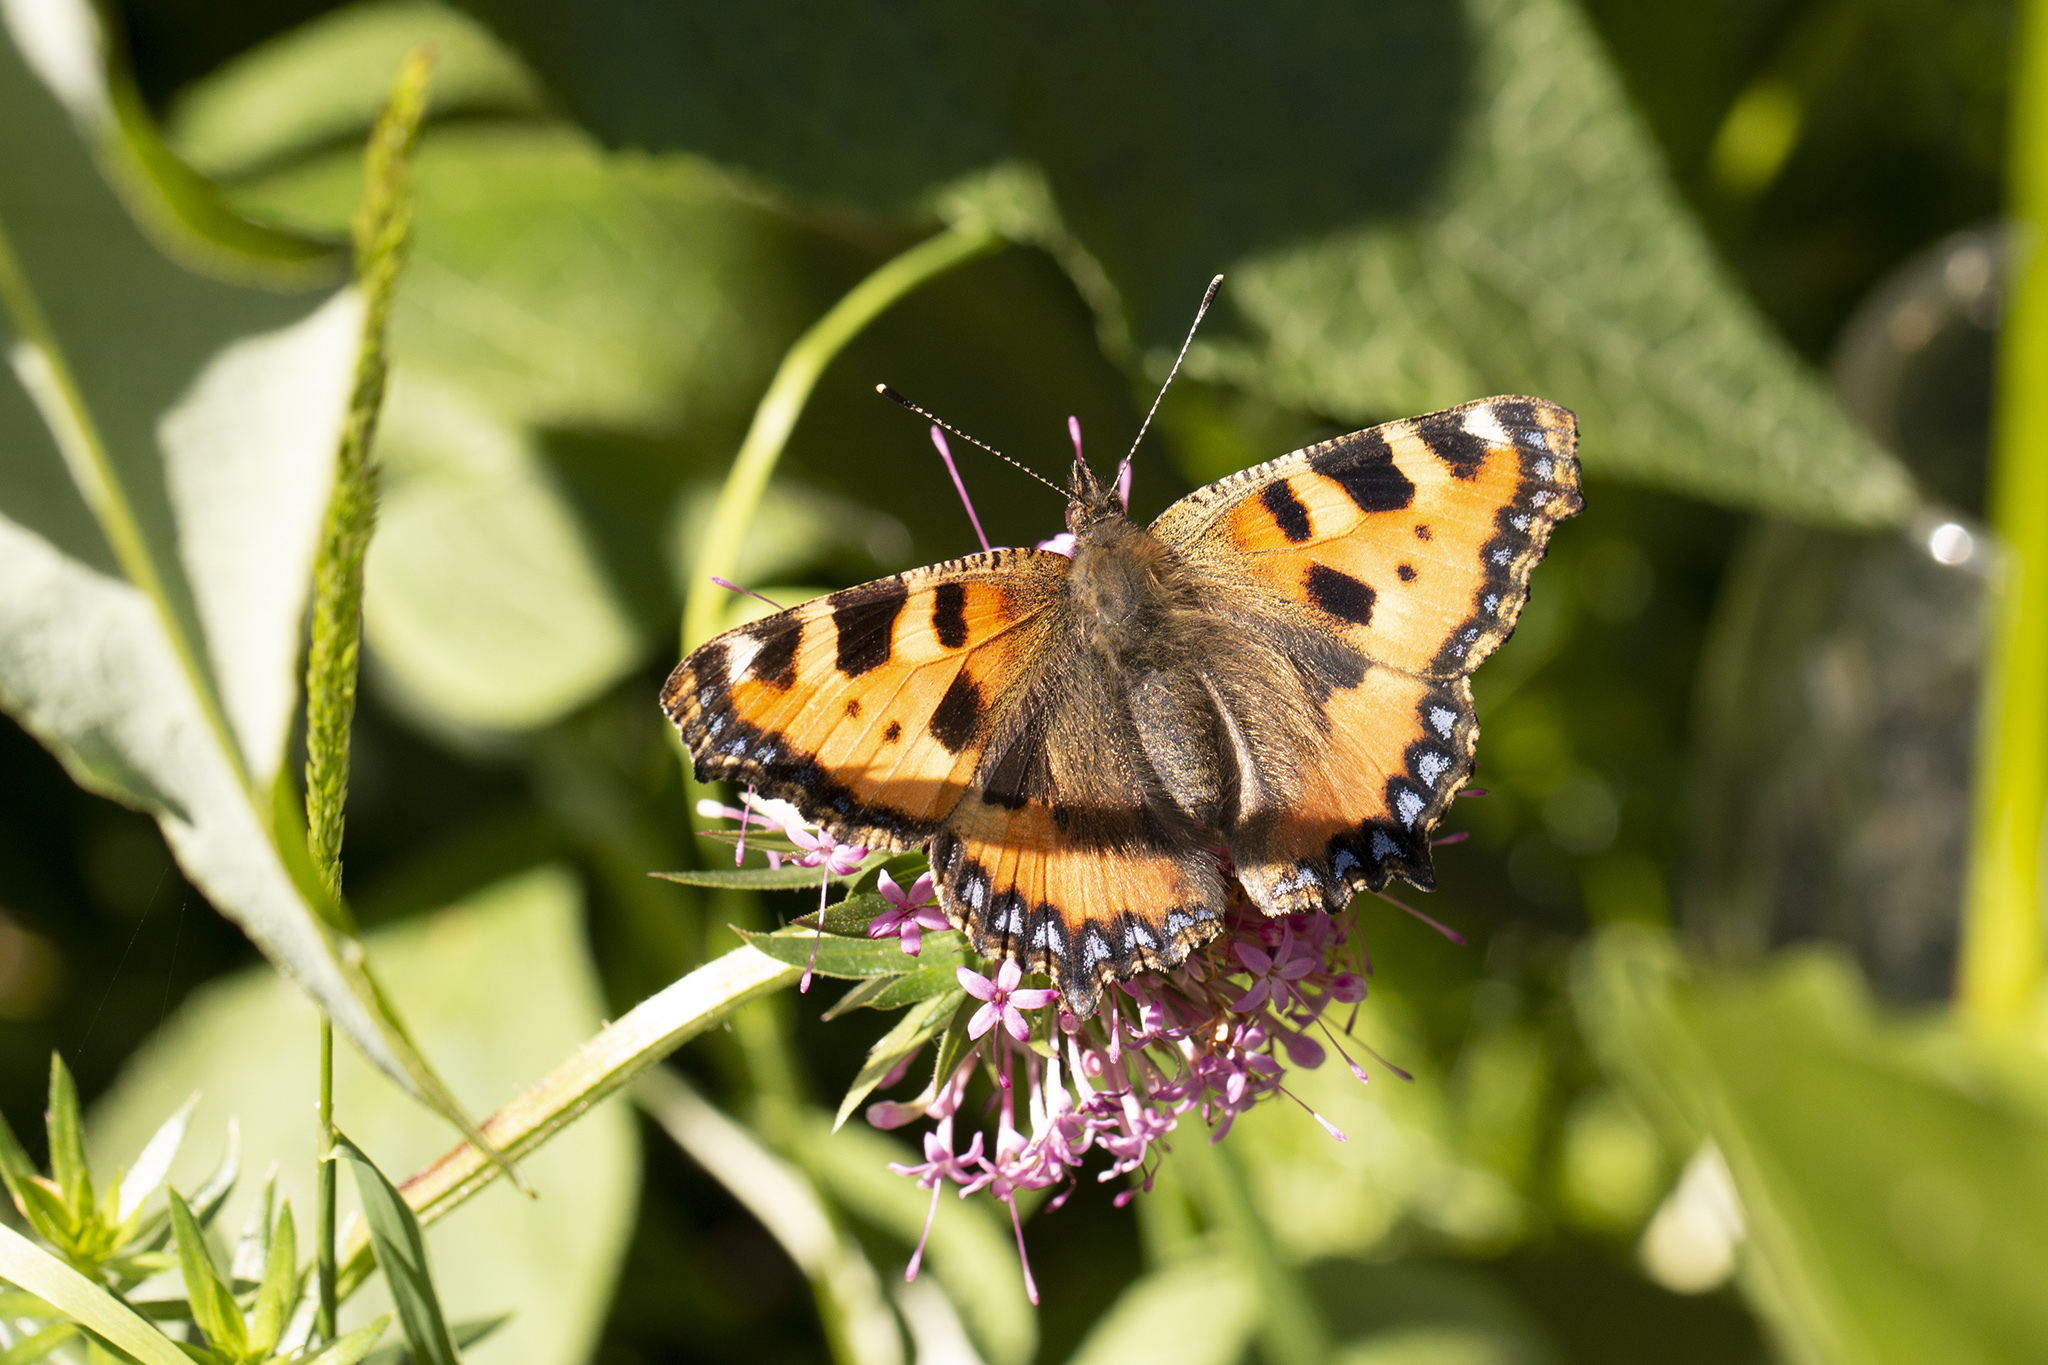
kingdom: Animalia
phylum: Arthropoda
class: Insecta
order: Lepidoptera
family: Nymphalidae
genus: Aglais
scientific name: Aglais urticae
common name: Small tortoiseshell
